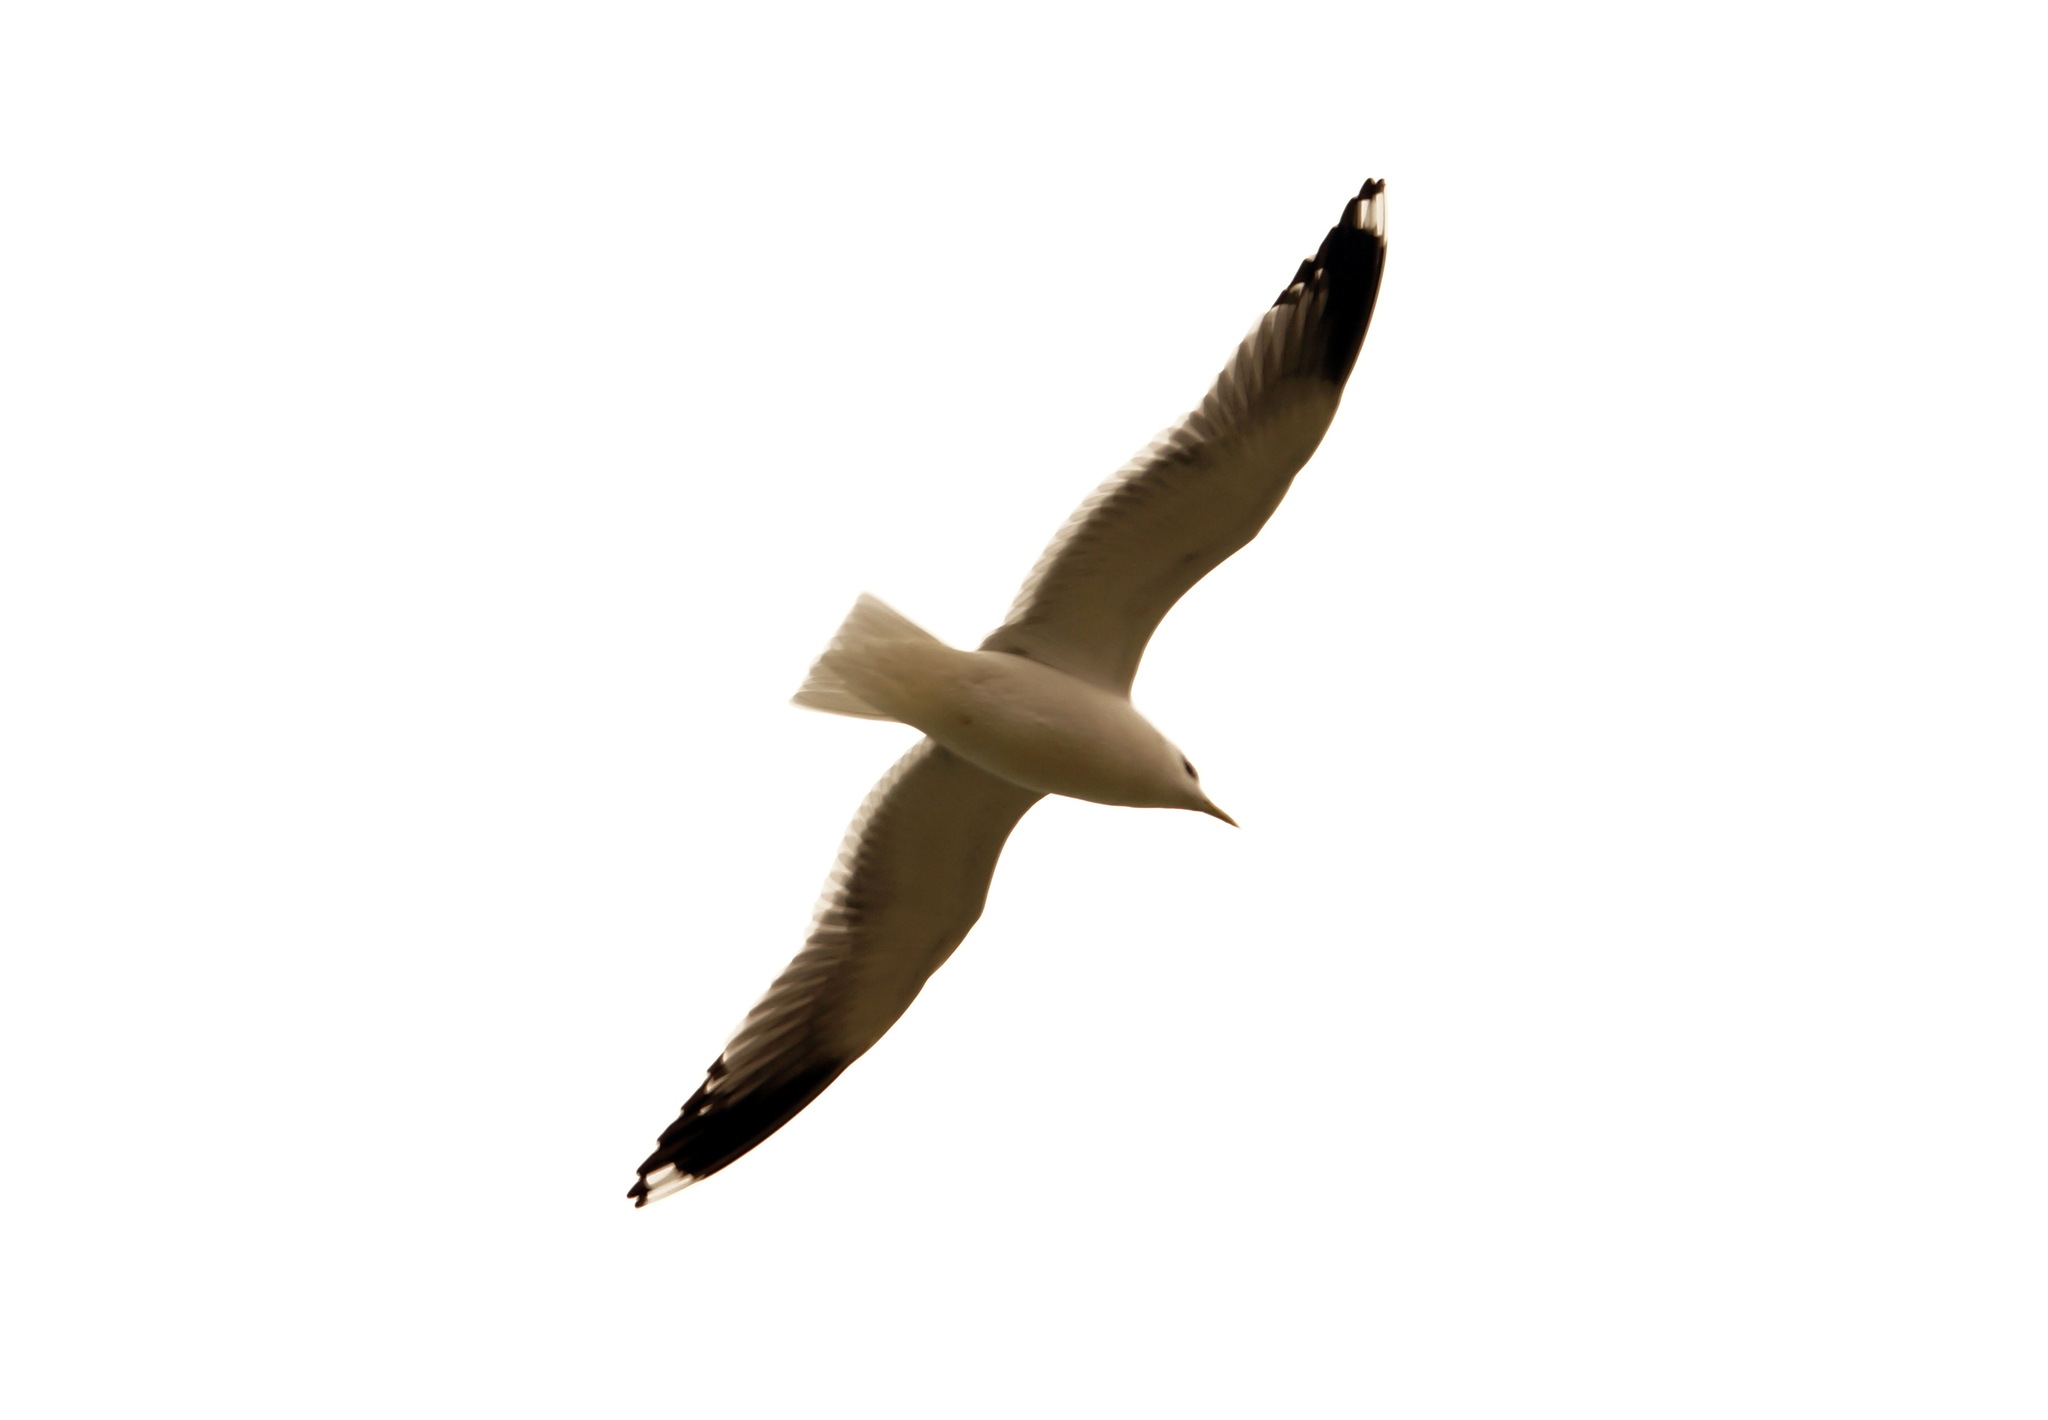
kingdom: Animalia
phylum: Chordata
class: Aves
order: Charadriiformes
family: Laridae
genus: Larus
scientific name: Larus canus
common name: Mew gull
